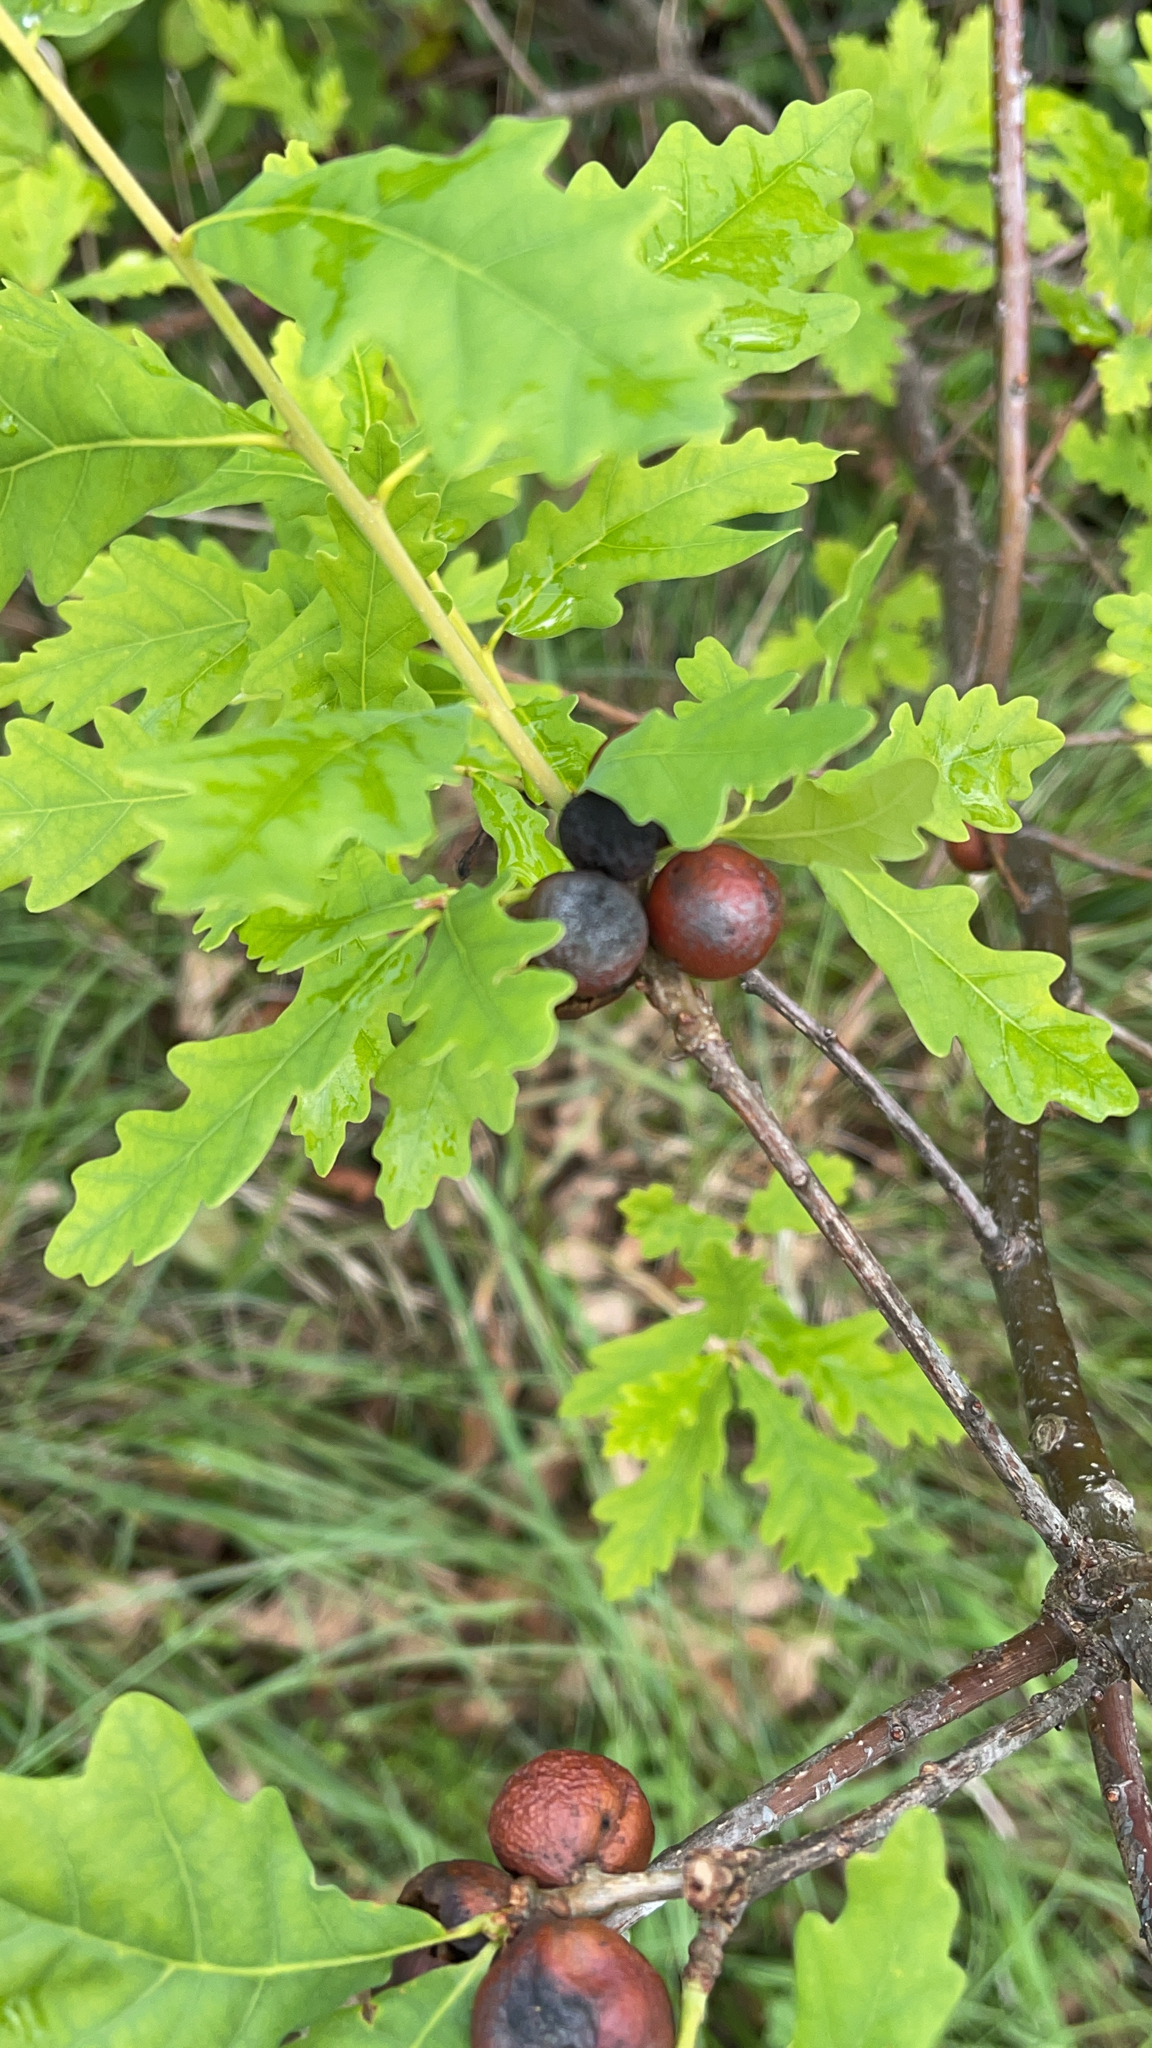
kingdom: Animalia
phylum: Arthropoda
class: Insecta
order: Hymenoptera
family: Cynipidae
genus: Andricus
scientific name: Andricus kollari
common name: Marble gall
